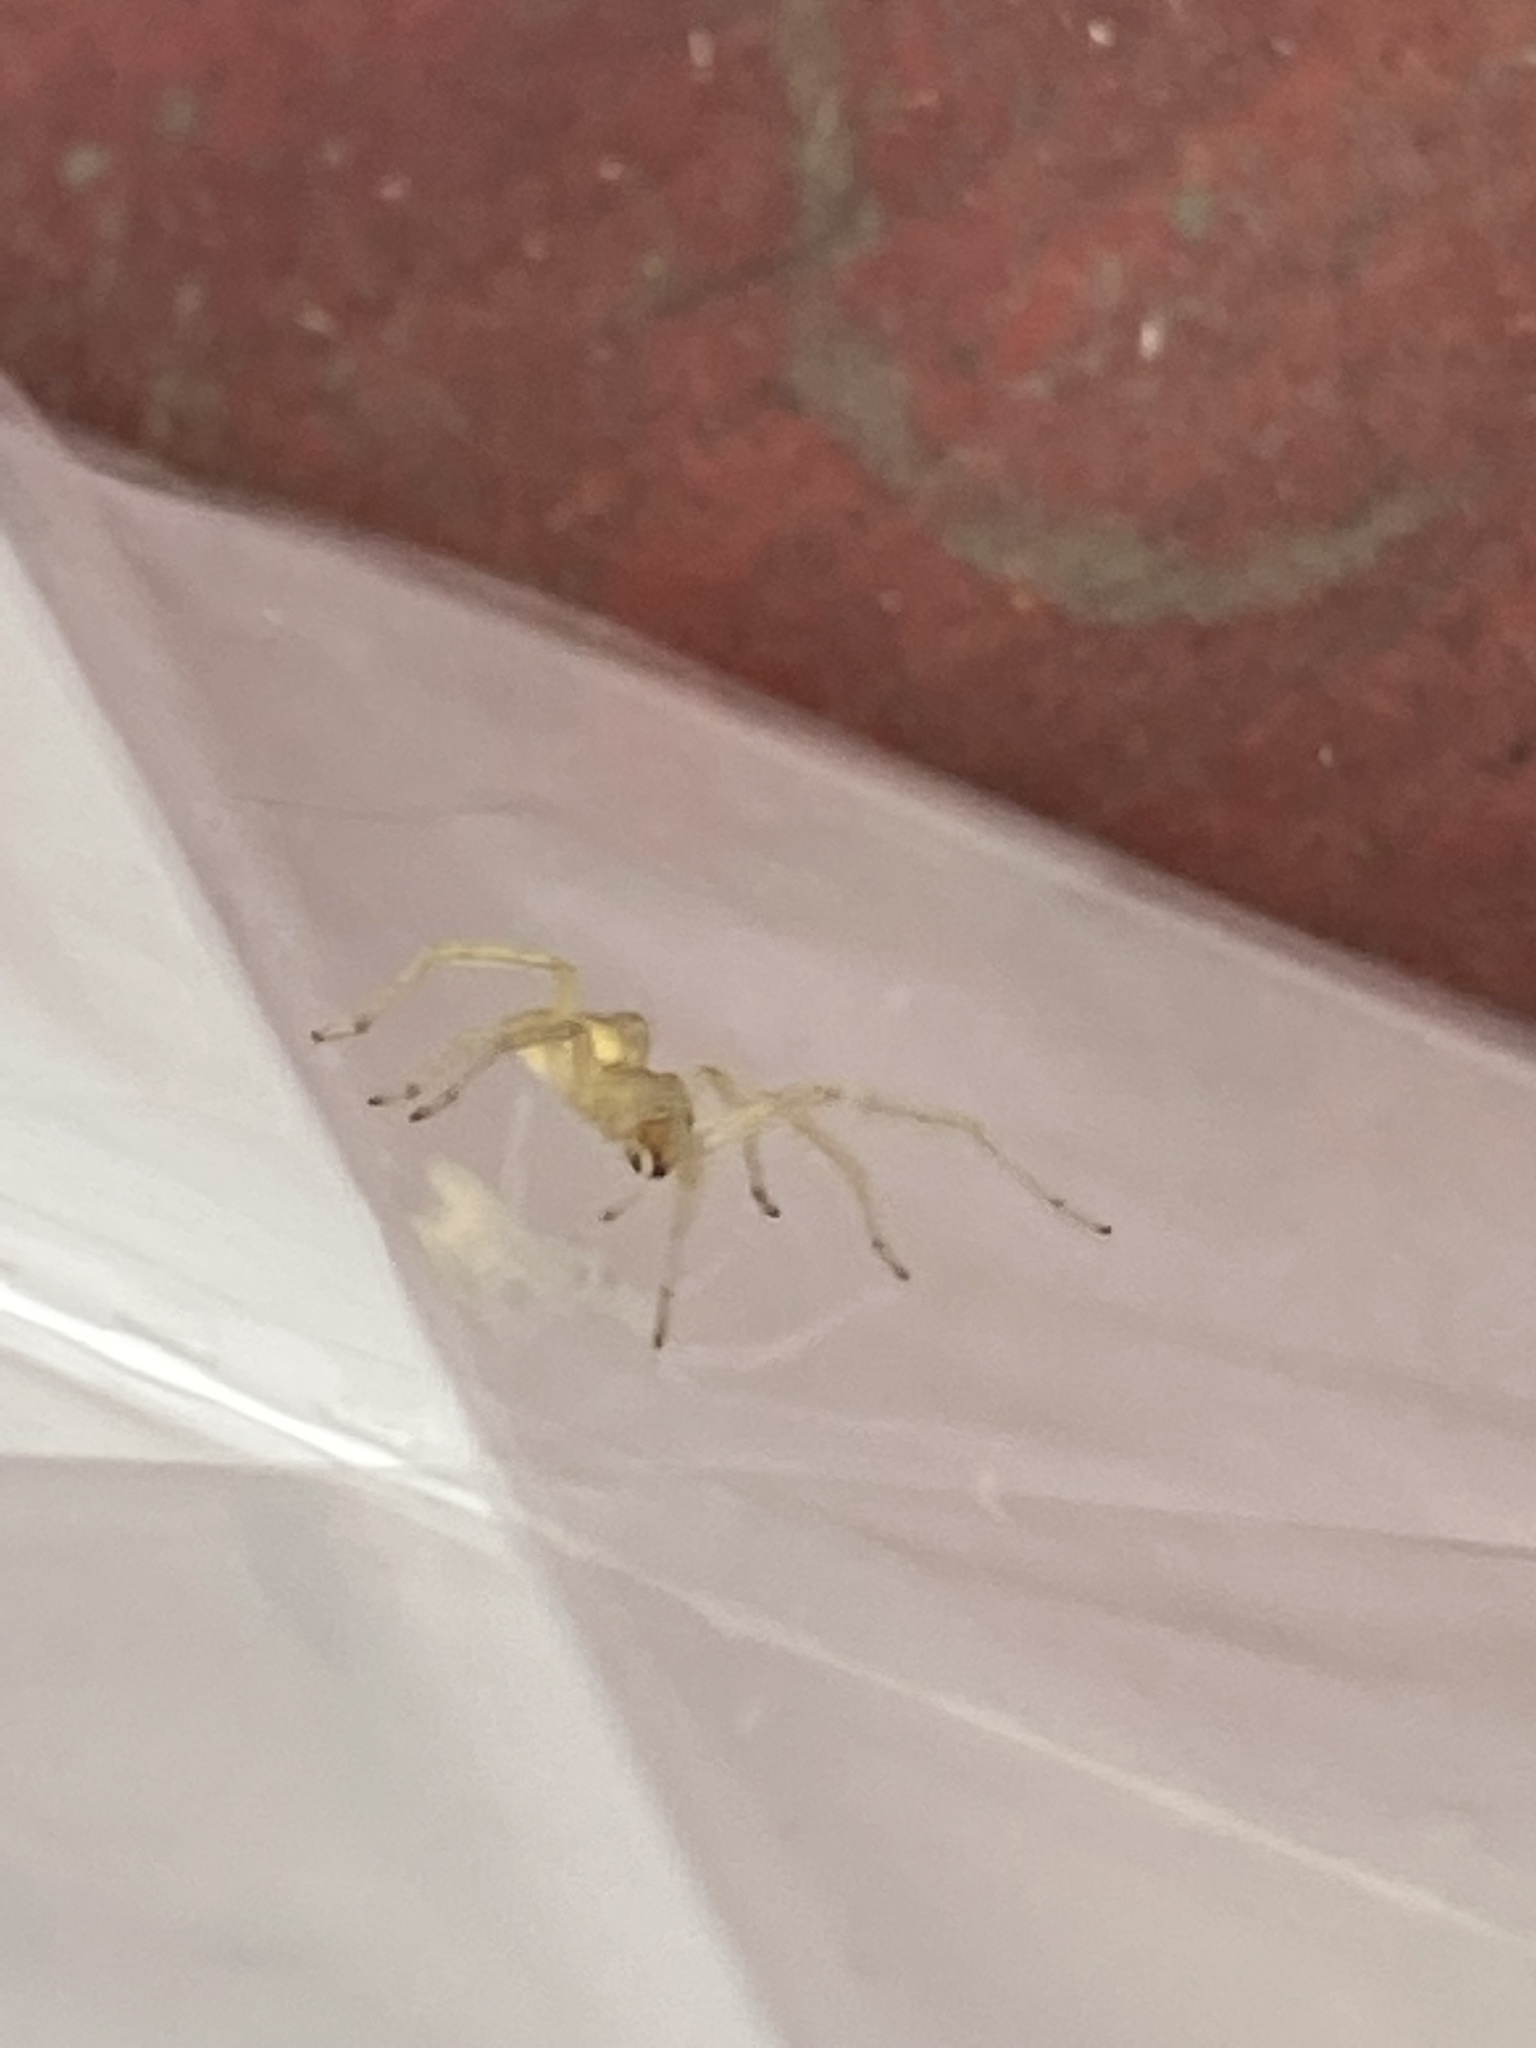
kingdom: Animalia
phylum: Arthropoda
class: Arachnida
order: Araneae
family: Cheiracanthiidae
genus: Cheiracanthium
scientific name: Cheiracanthium mildei
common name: Northern yellow sac spider
